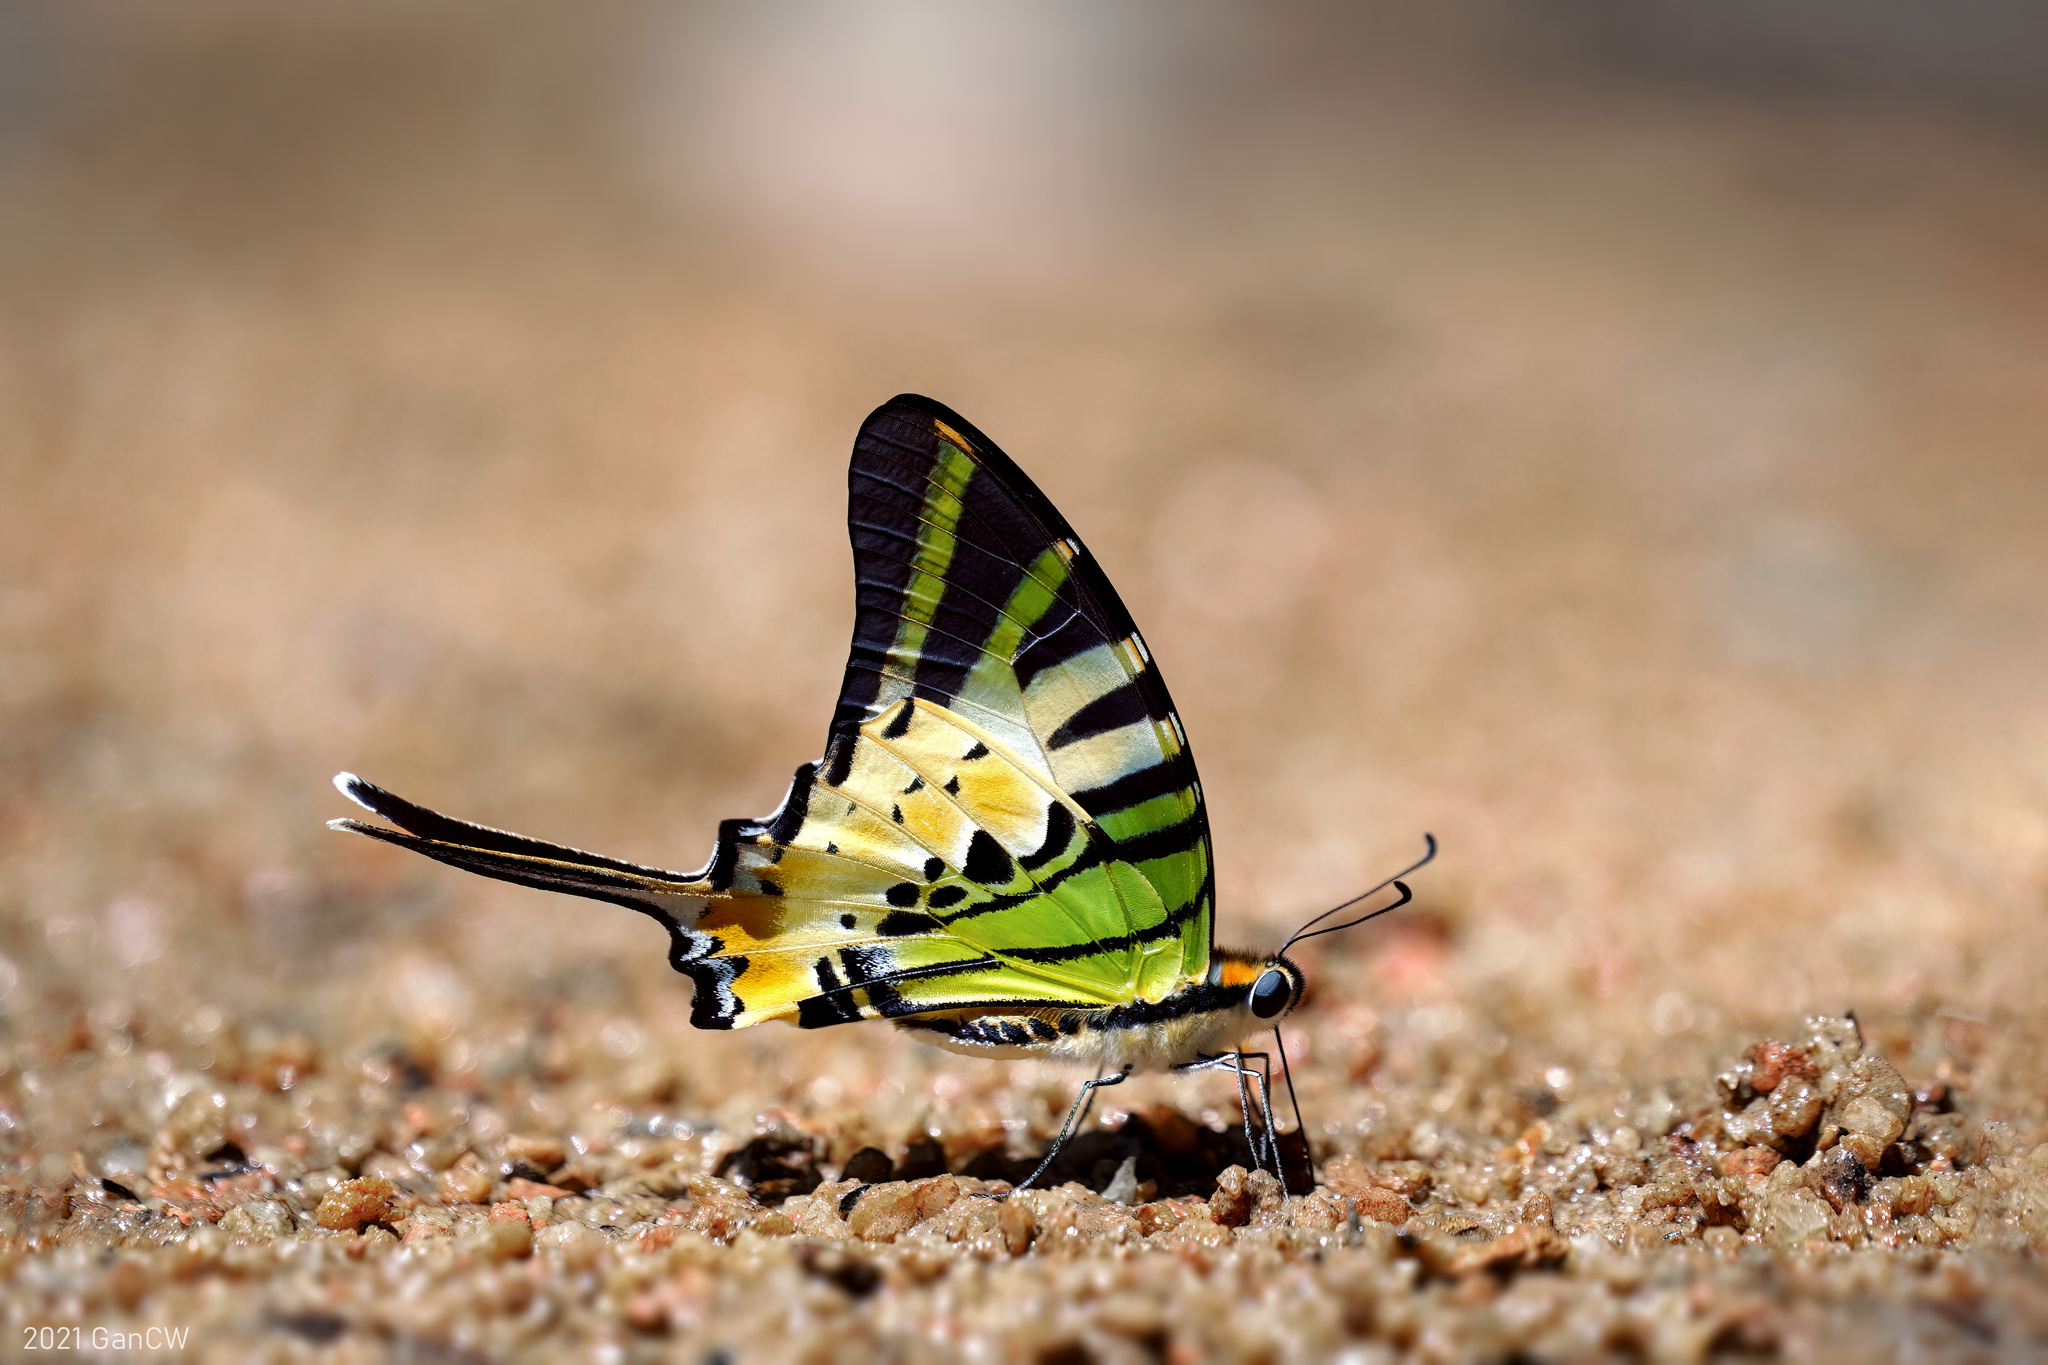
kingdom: Animalia
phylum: Arthropoda
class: Insecta
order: Lepidoptera
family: Papilionidae
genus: Graphium
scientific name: Graphium antiphates
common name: Fivebar swordtail
